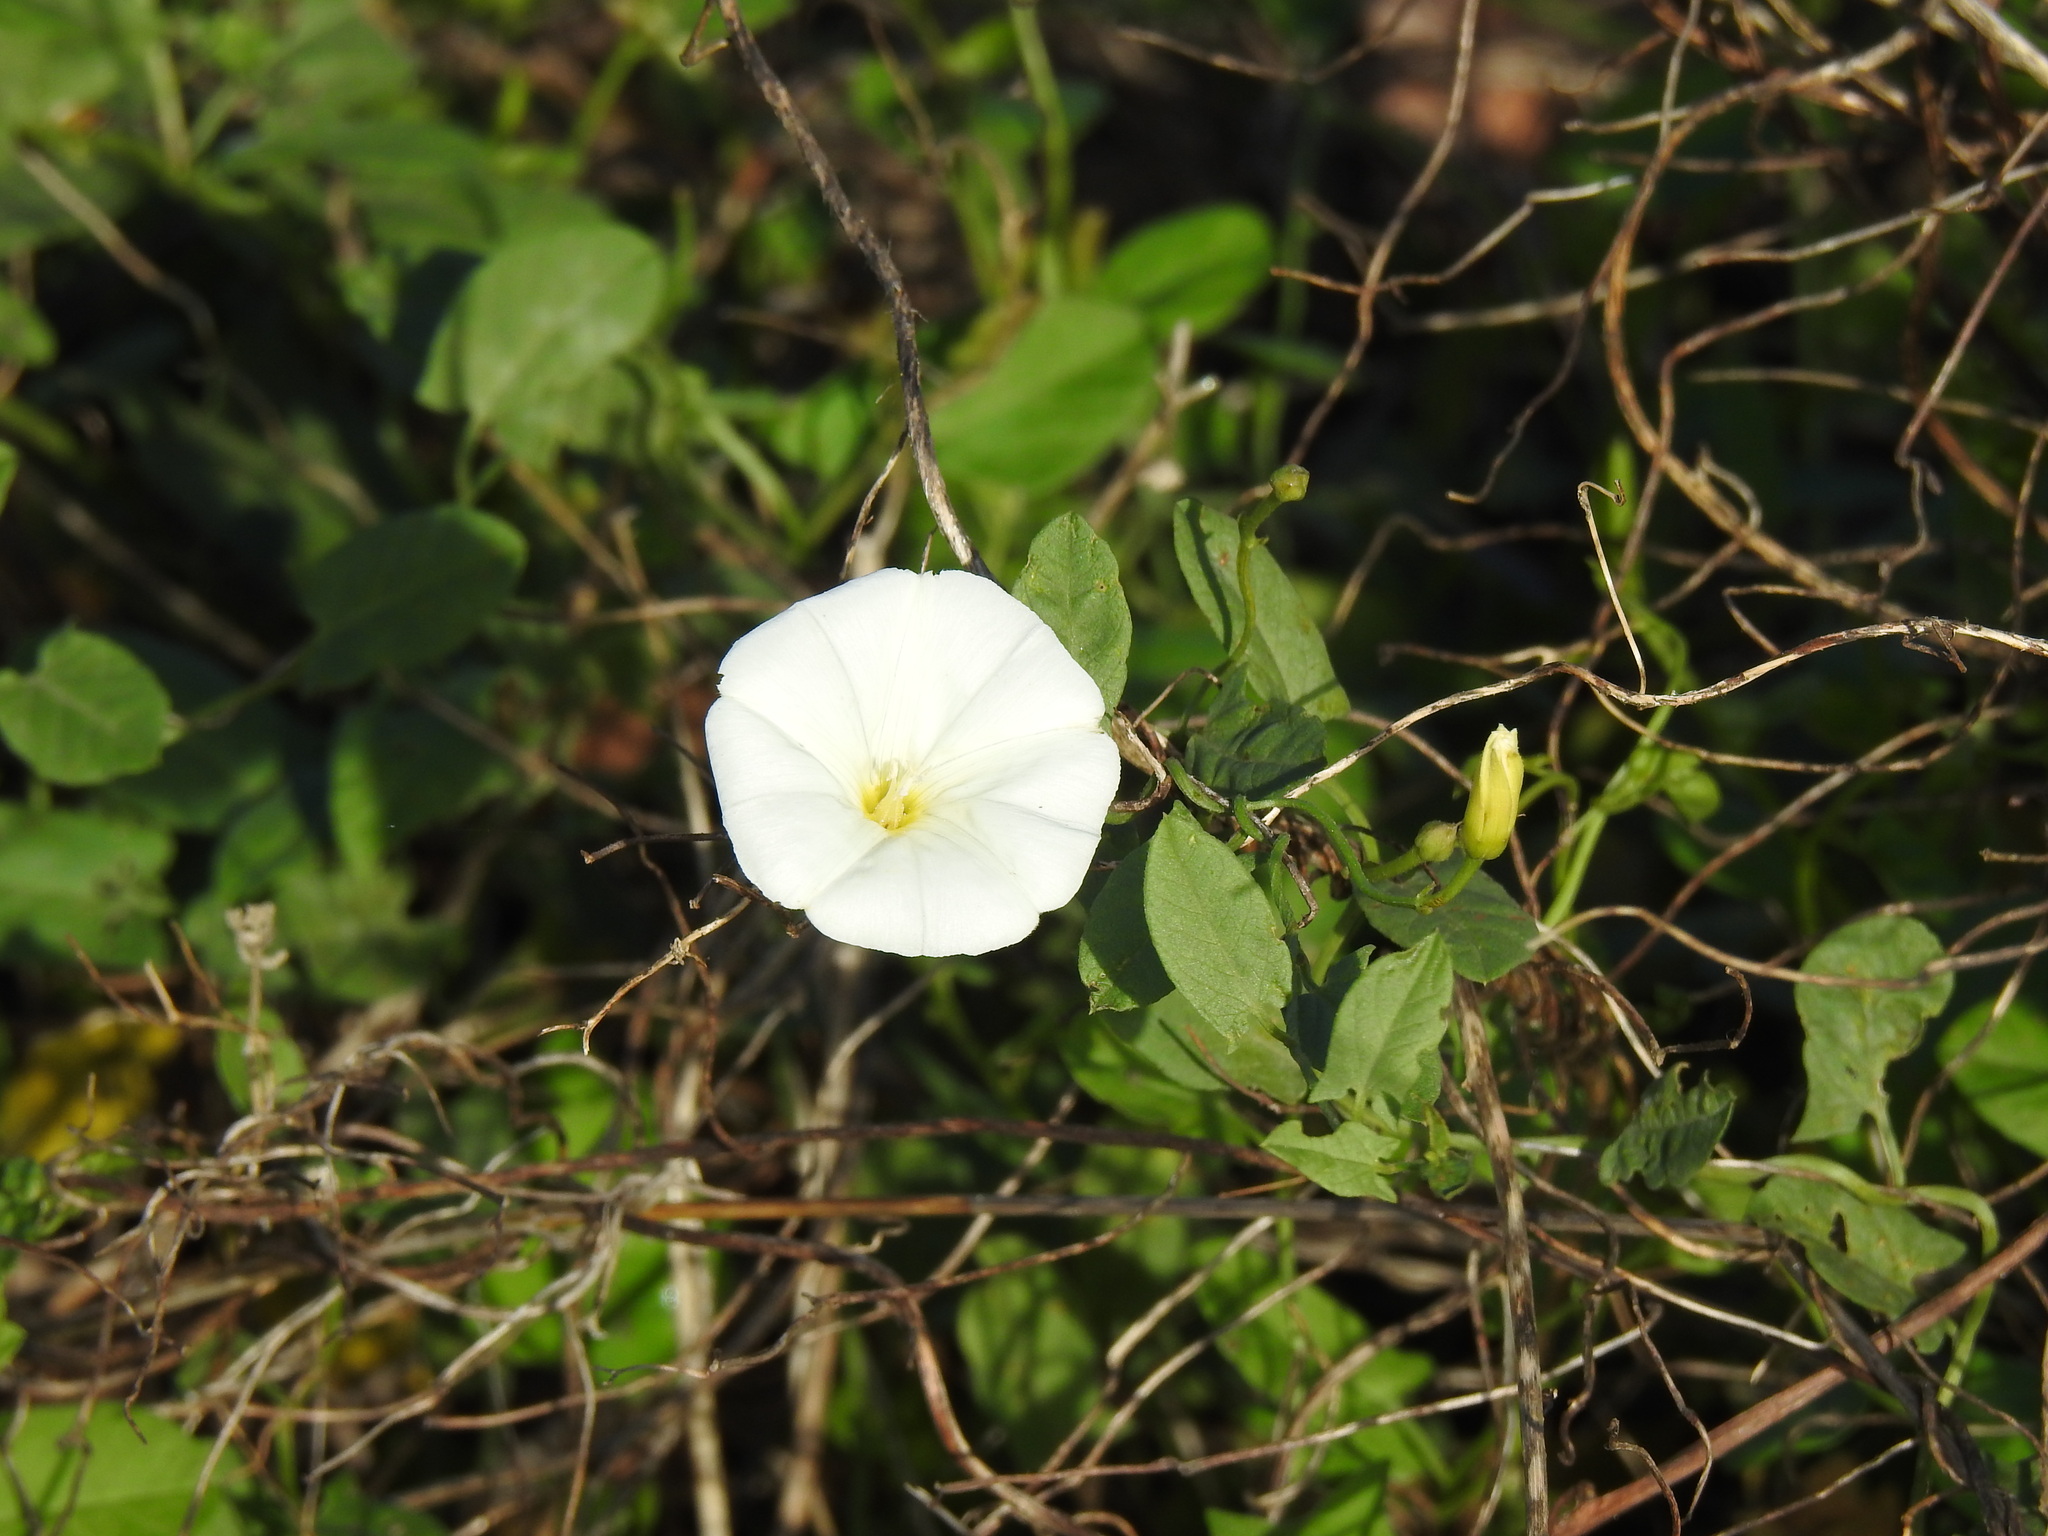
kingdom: Plantae
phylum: Tracheophyta
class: Magnoliopsida
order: Solanales
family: Convolvulaceae
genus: Convolvulus
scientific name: Convolvulus arvensis
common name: Field bindweed
